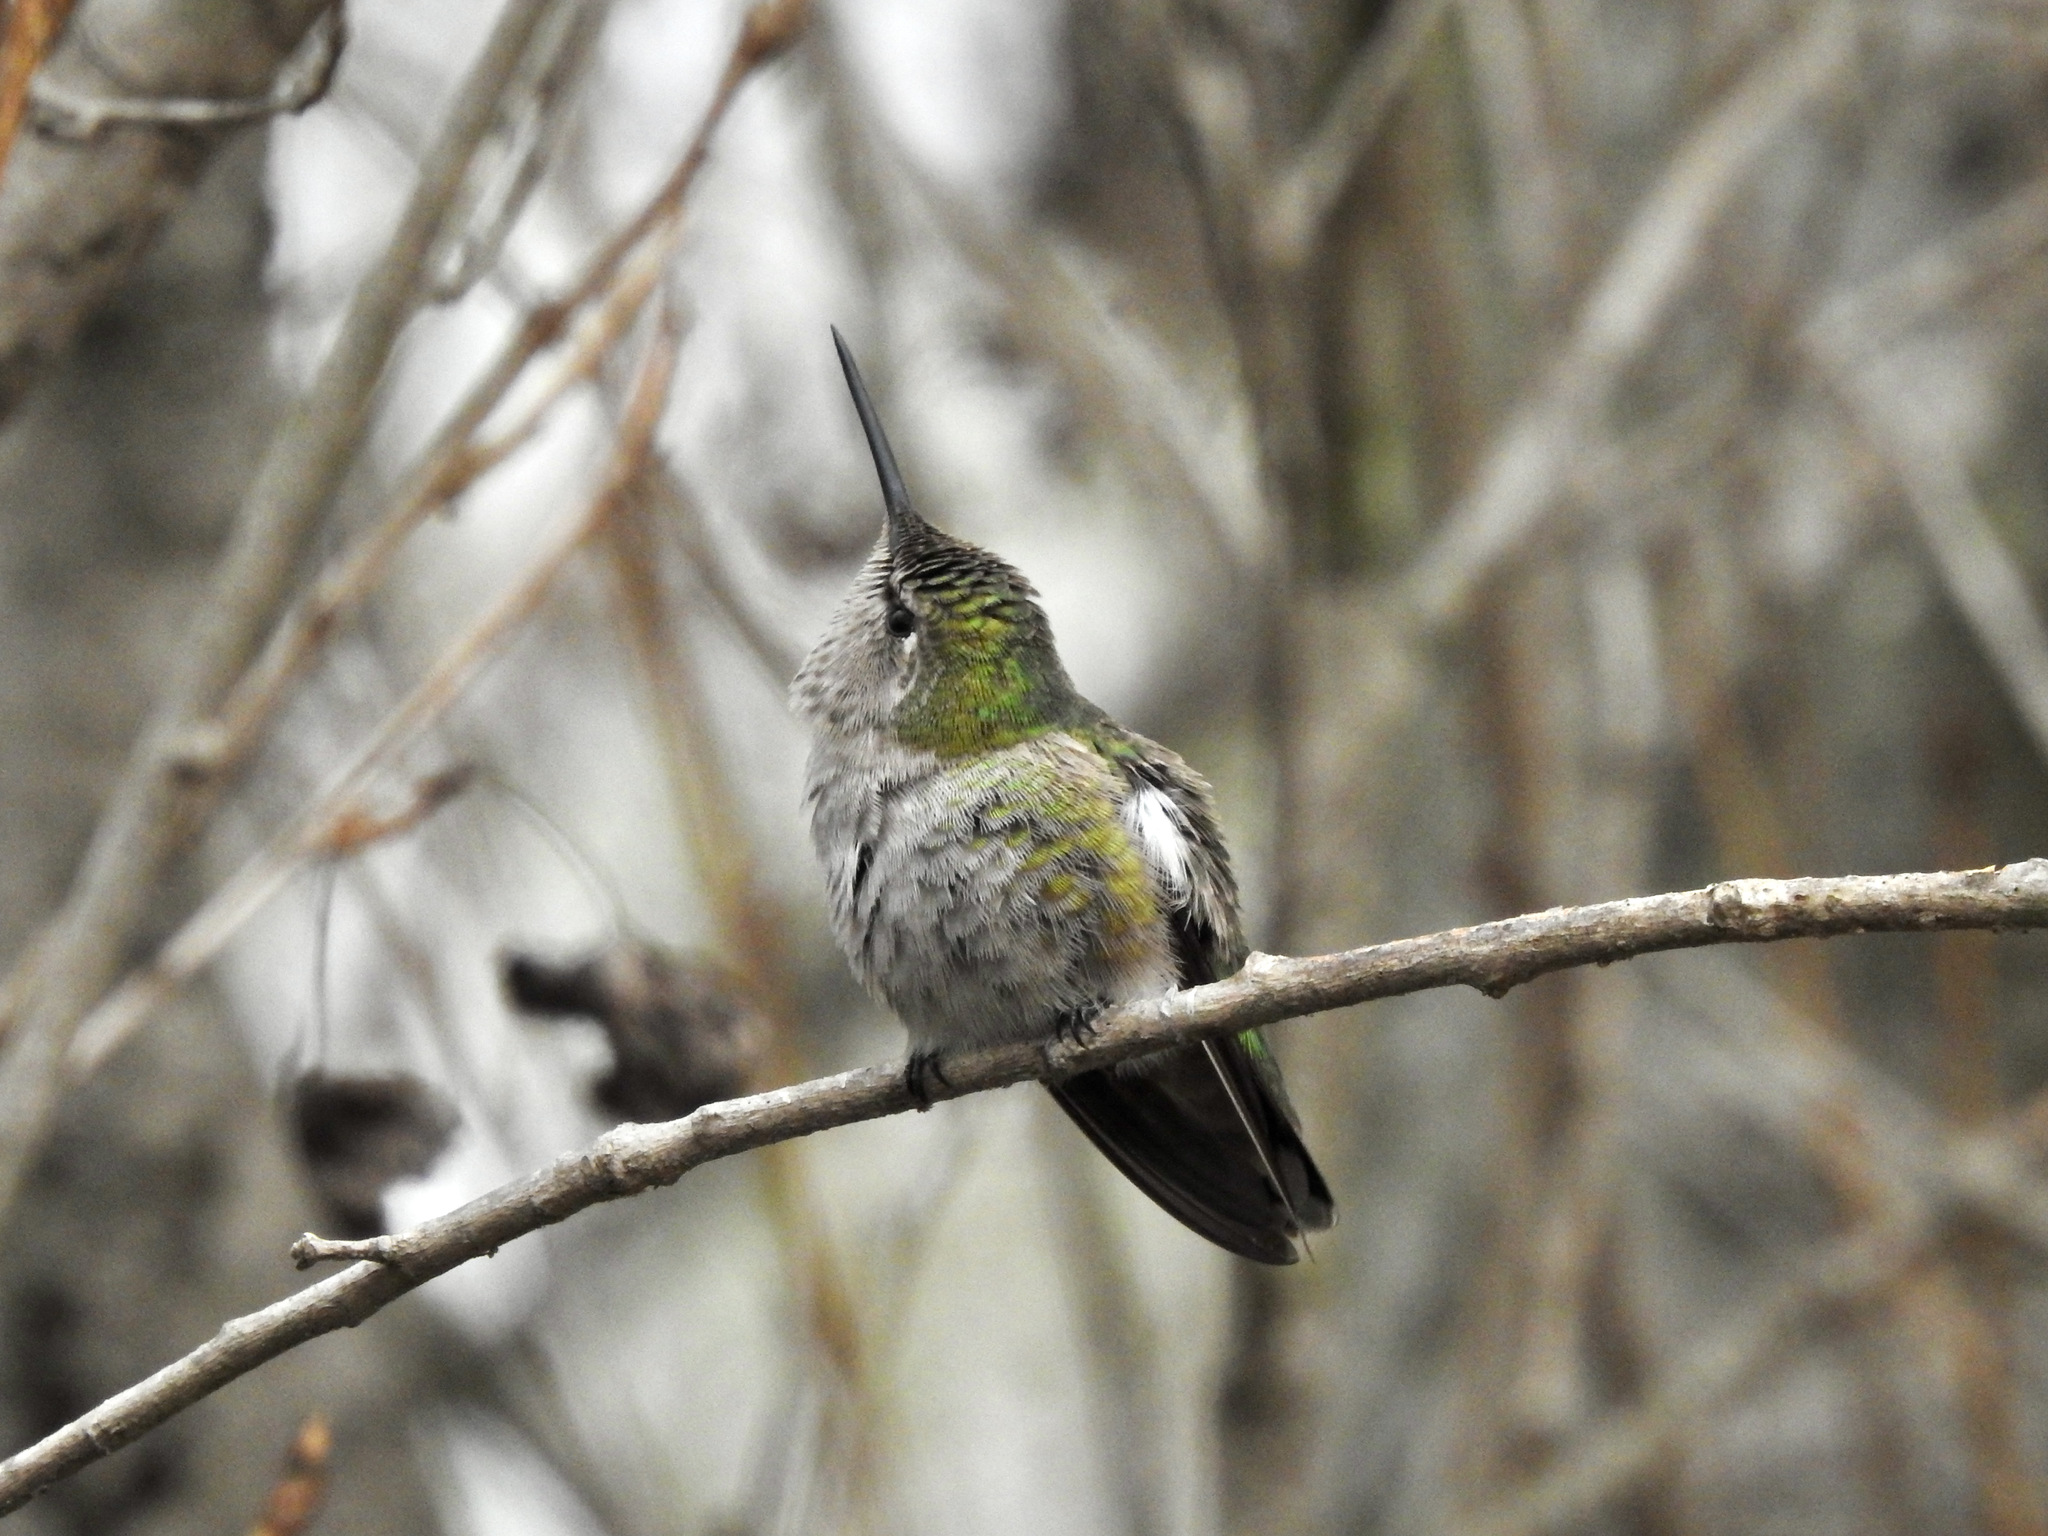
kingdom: Animalia
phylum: Chordata
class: Aves
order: Apodiformes
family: Trochilidae
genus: Calypte
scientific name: Calypte anna
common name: Anna's hummingbird
